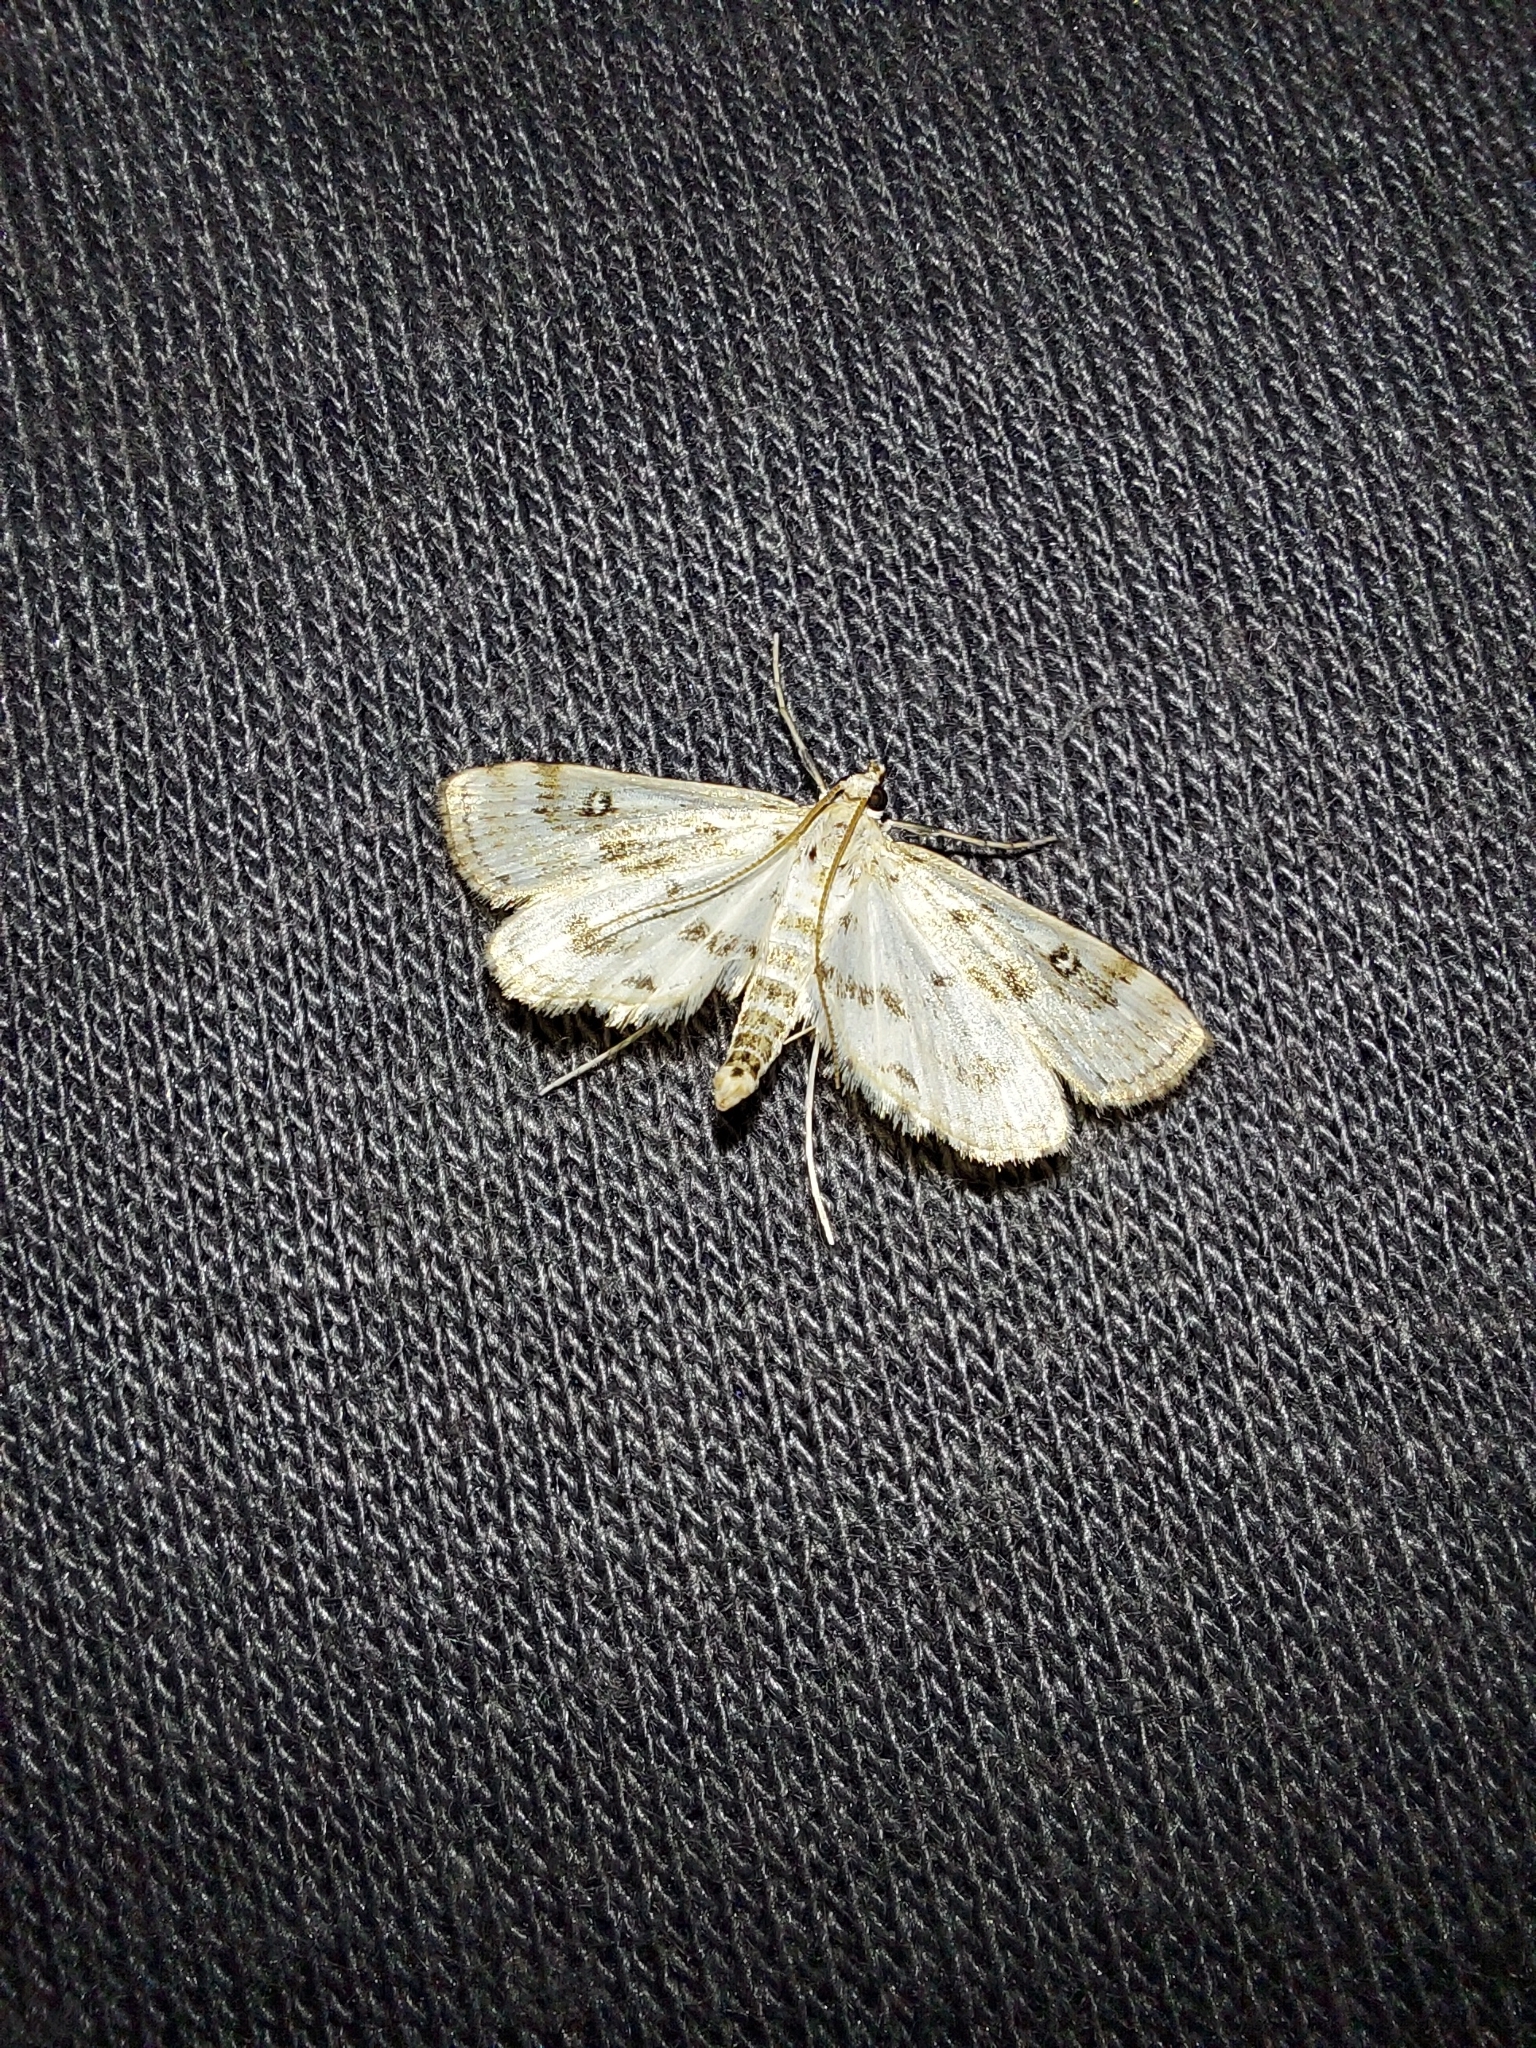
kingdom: Animalia
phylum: Arthropoda
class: Insecta
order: Lepidoptera
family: Crambidae
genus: Parapoynx
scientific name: Parapoynx stratiotata
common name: Ringed china-mark
